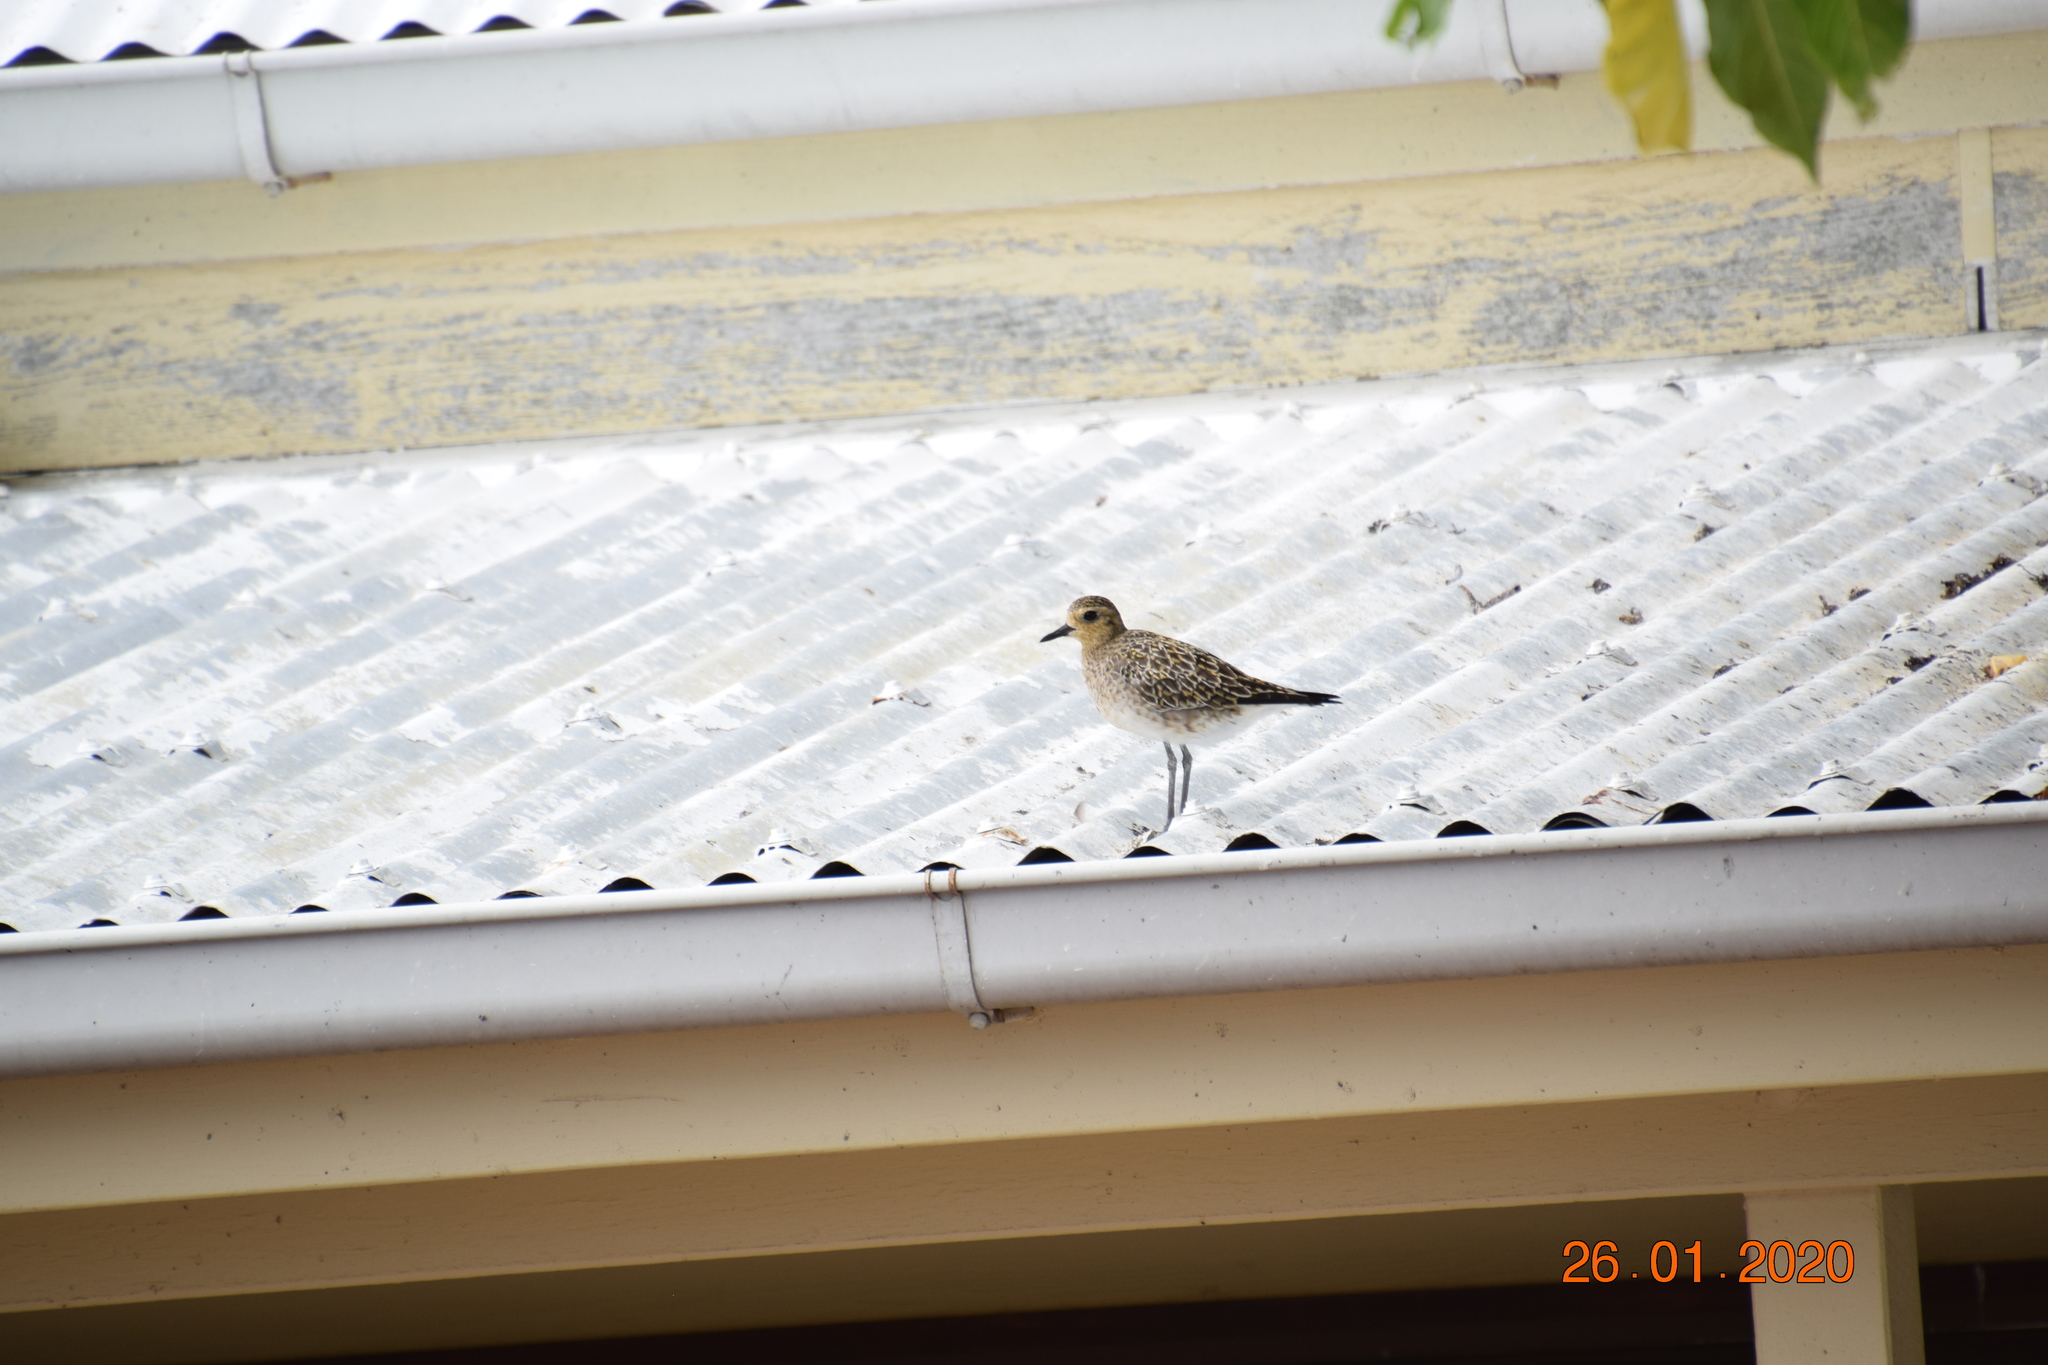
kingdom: Animalia
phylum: Chordata
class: Aves
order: Charadriiformes
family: Charadriidae
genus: Pluvialis
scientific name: Pluvialis fulva
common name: Pacific golden plover
